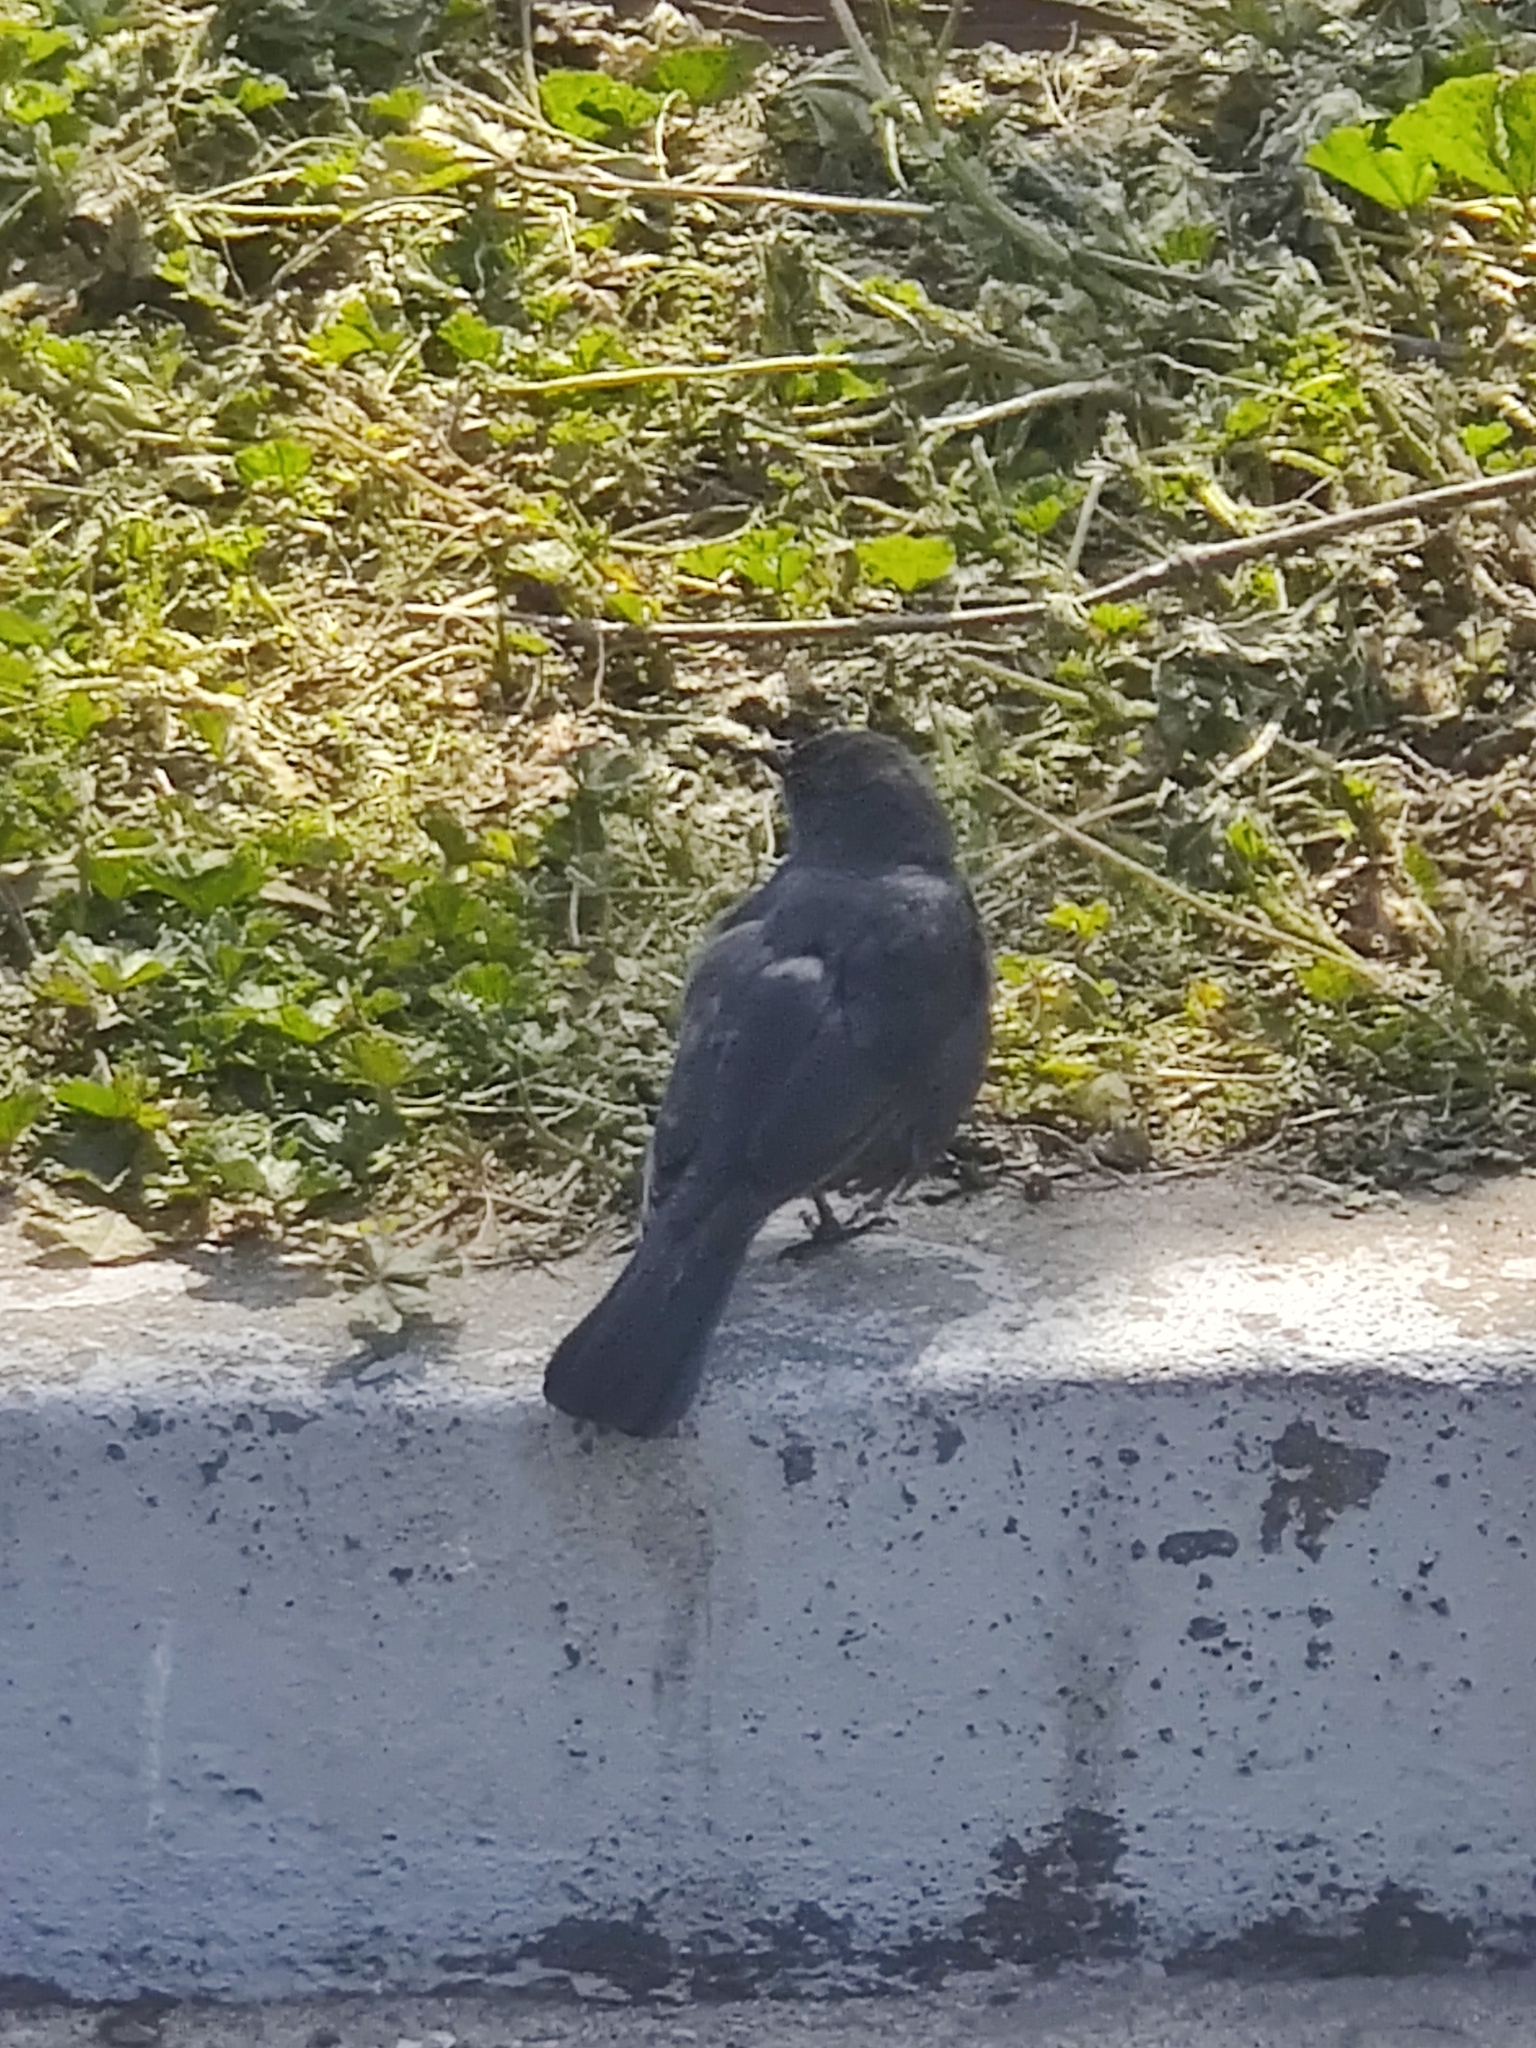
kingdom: Animalia
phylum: Chordata
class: Aves
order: Passeriformes
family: Icteridae
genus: Euphagus
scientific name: Euphagus cyanocephalus
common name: Brewer's blackbird
